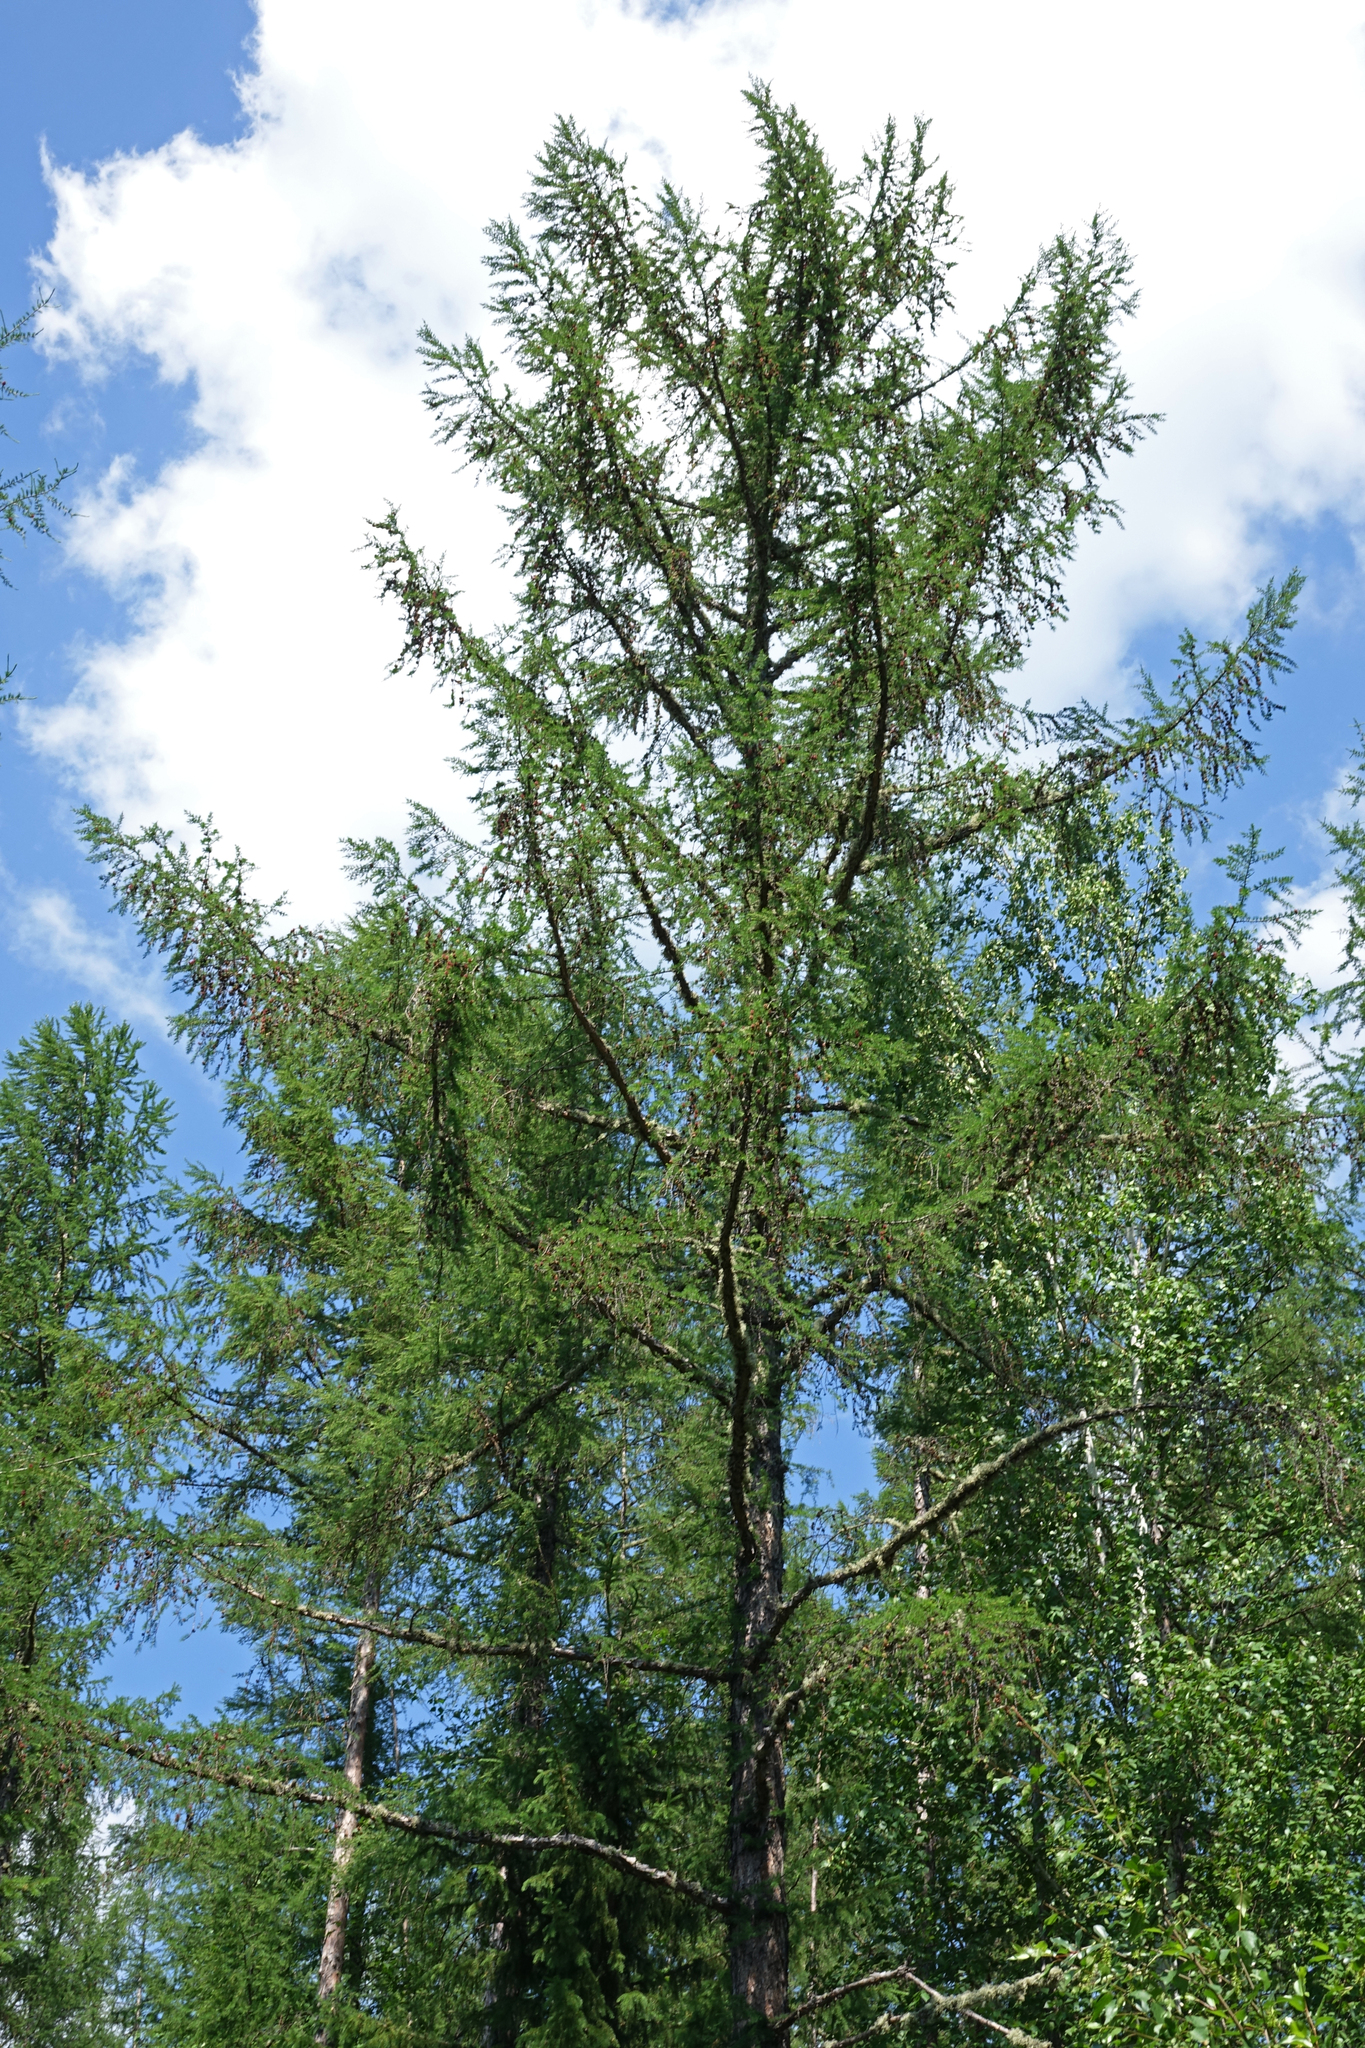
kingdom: Plantae
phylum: Tracheophyta
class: Pinopsida
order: Pinales
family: Pinaceae
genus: Larix
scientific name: Larix gmelinii
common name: Dahurian larch
